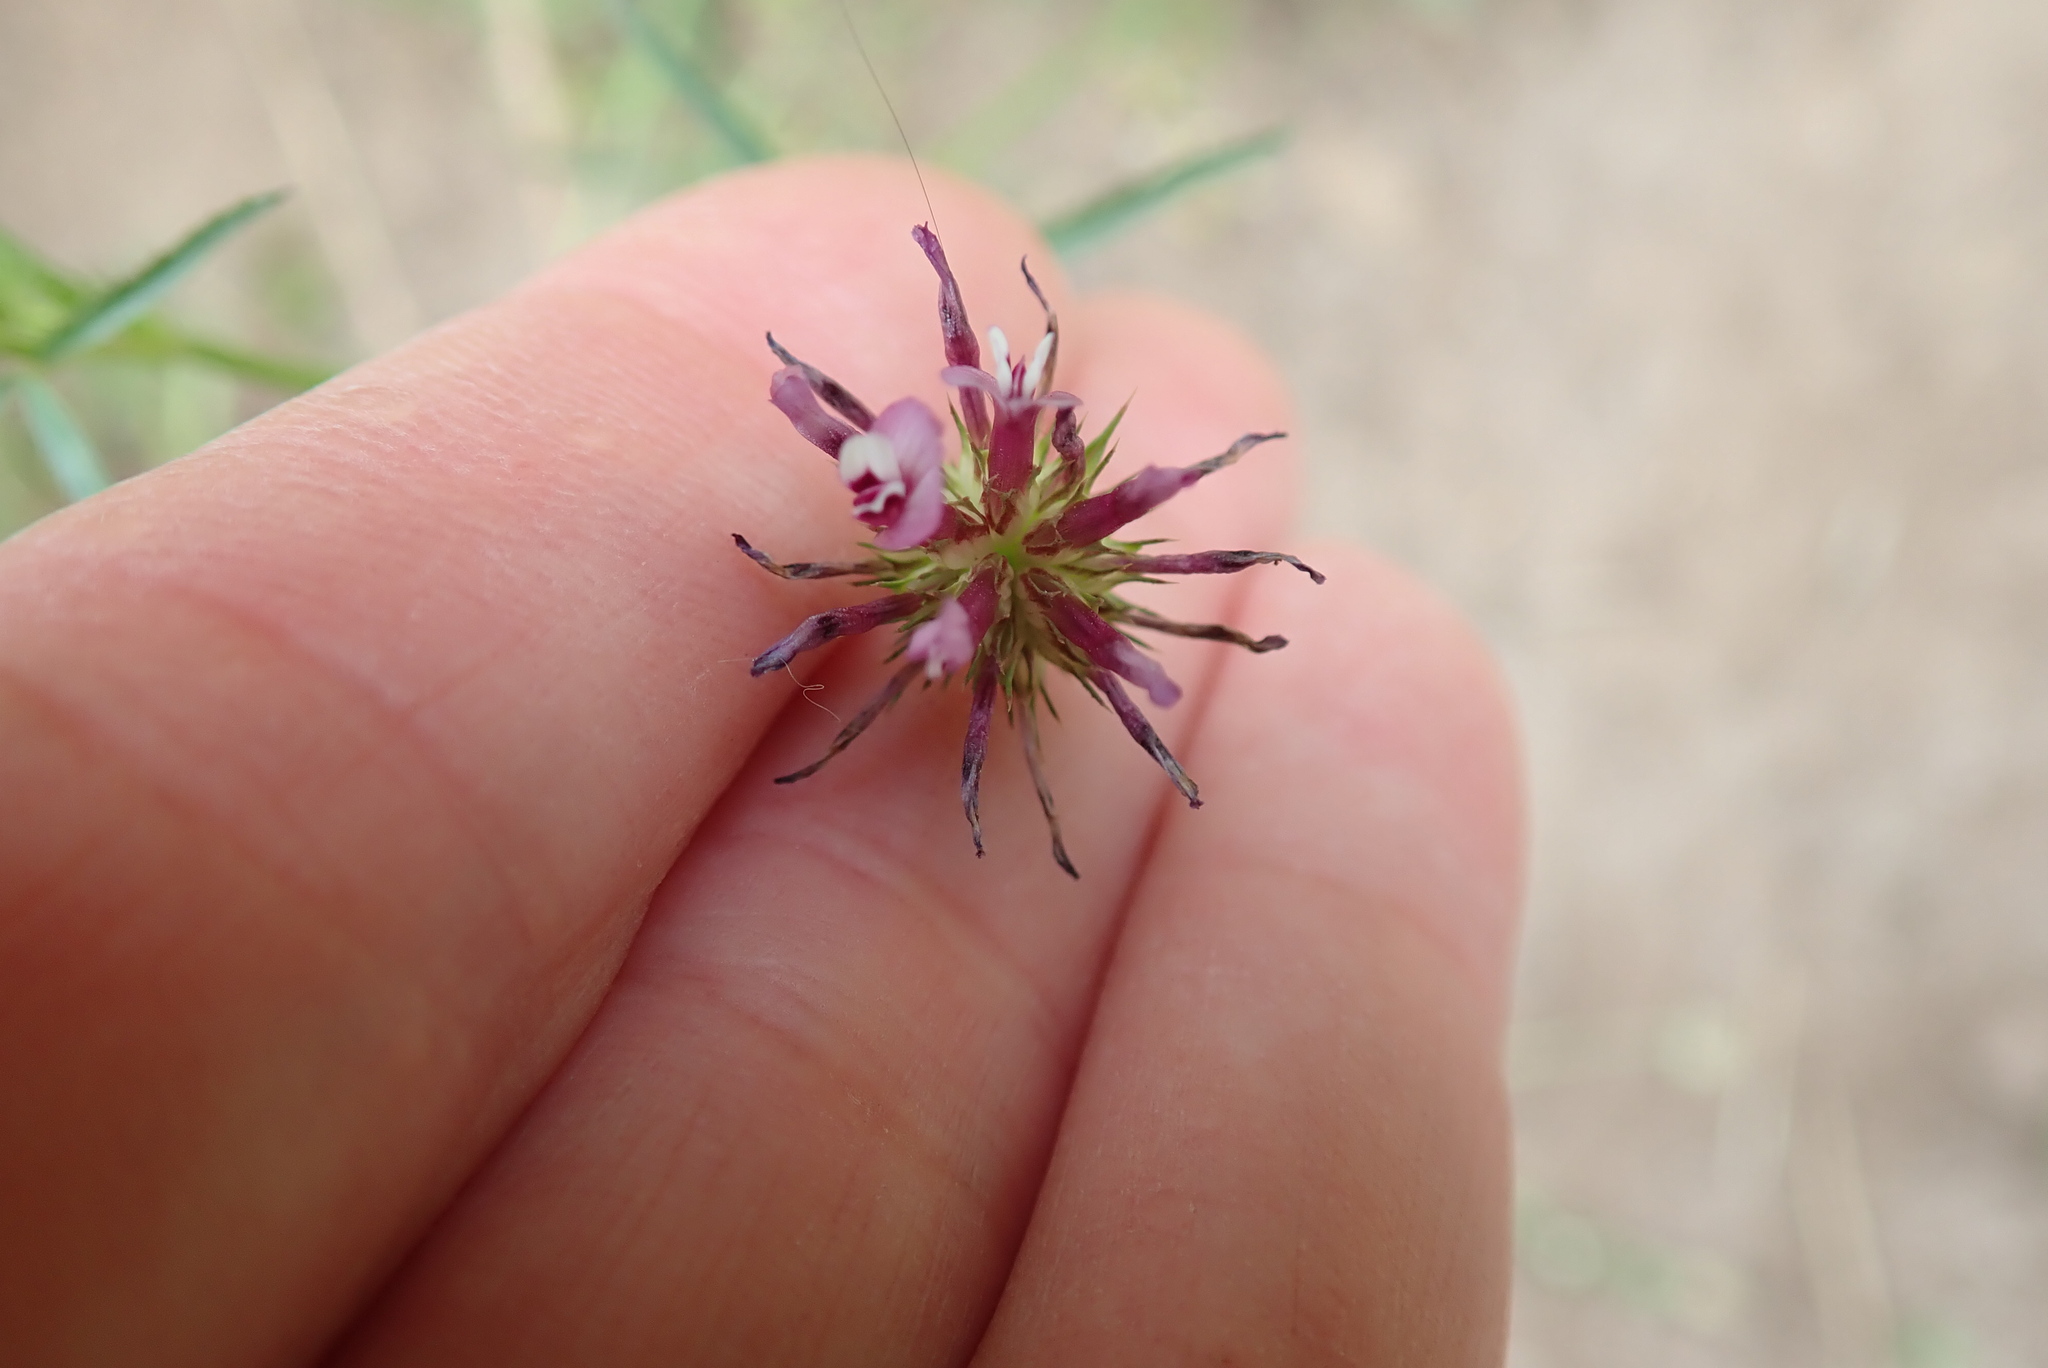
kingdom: Plantae
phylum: Tracheophyta
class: Magnoliopsida
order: Fabales
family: Fabaceae
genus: Trifolium
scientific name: Trifolium willdenovii
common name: Tomcat clover
